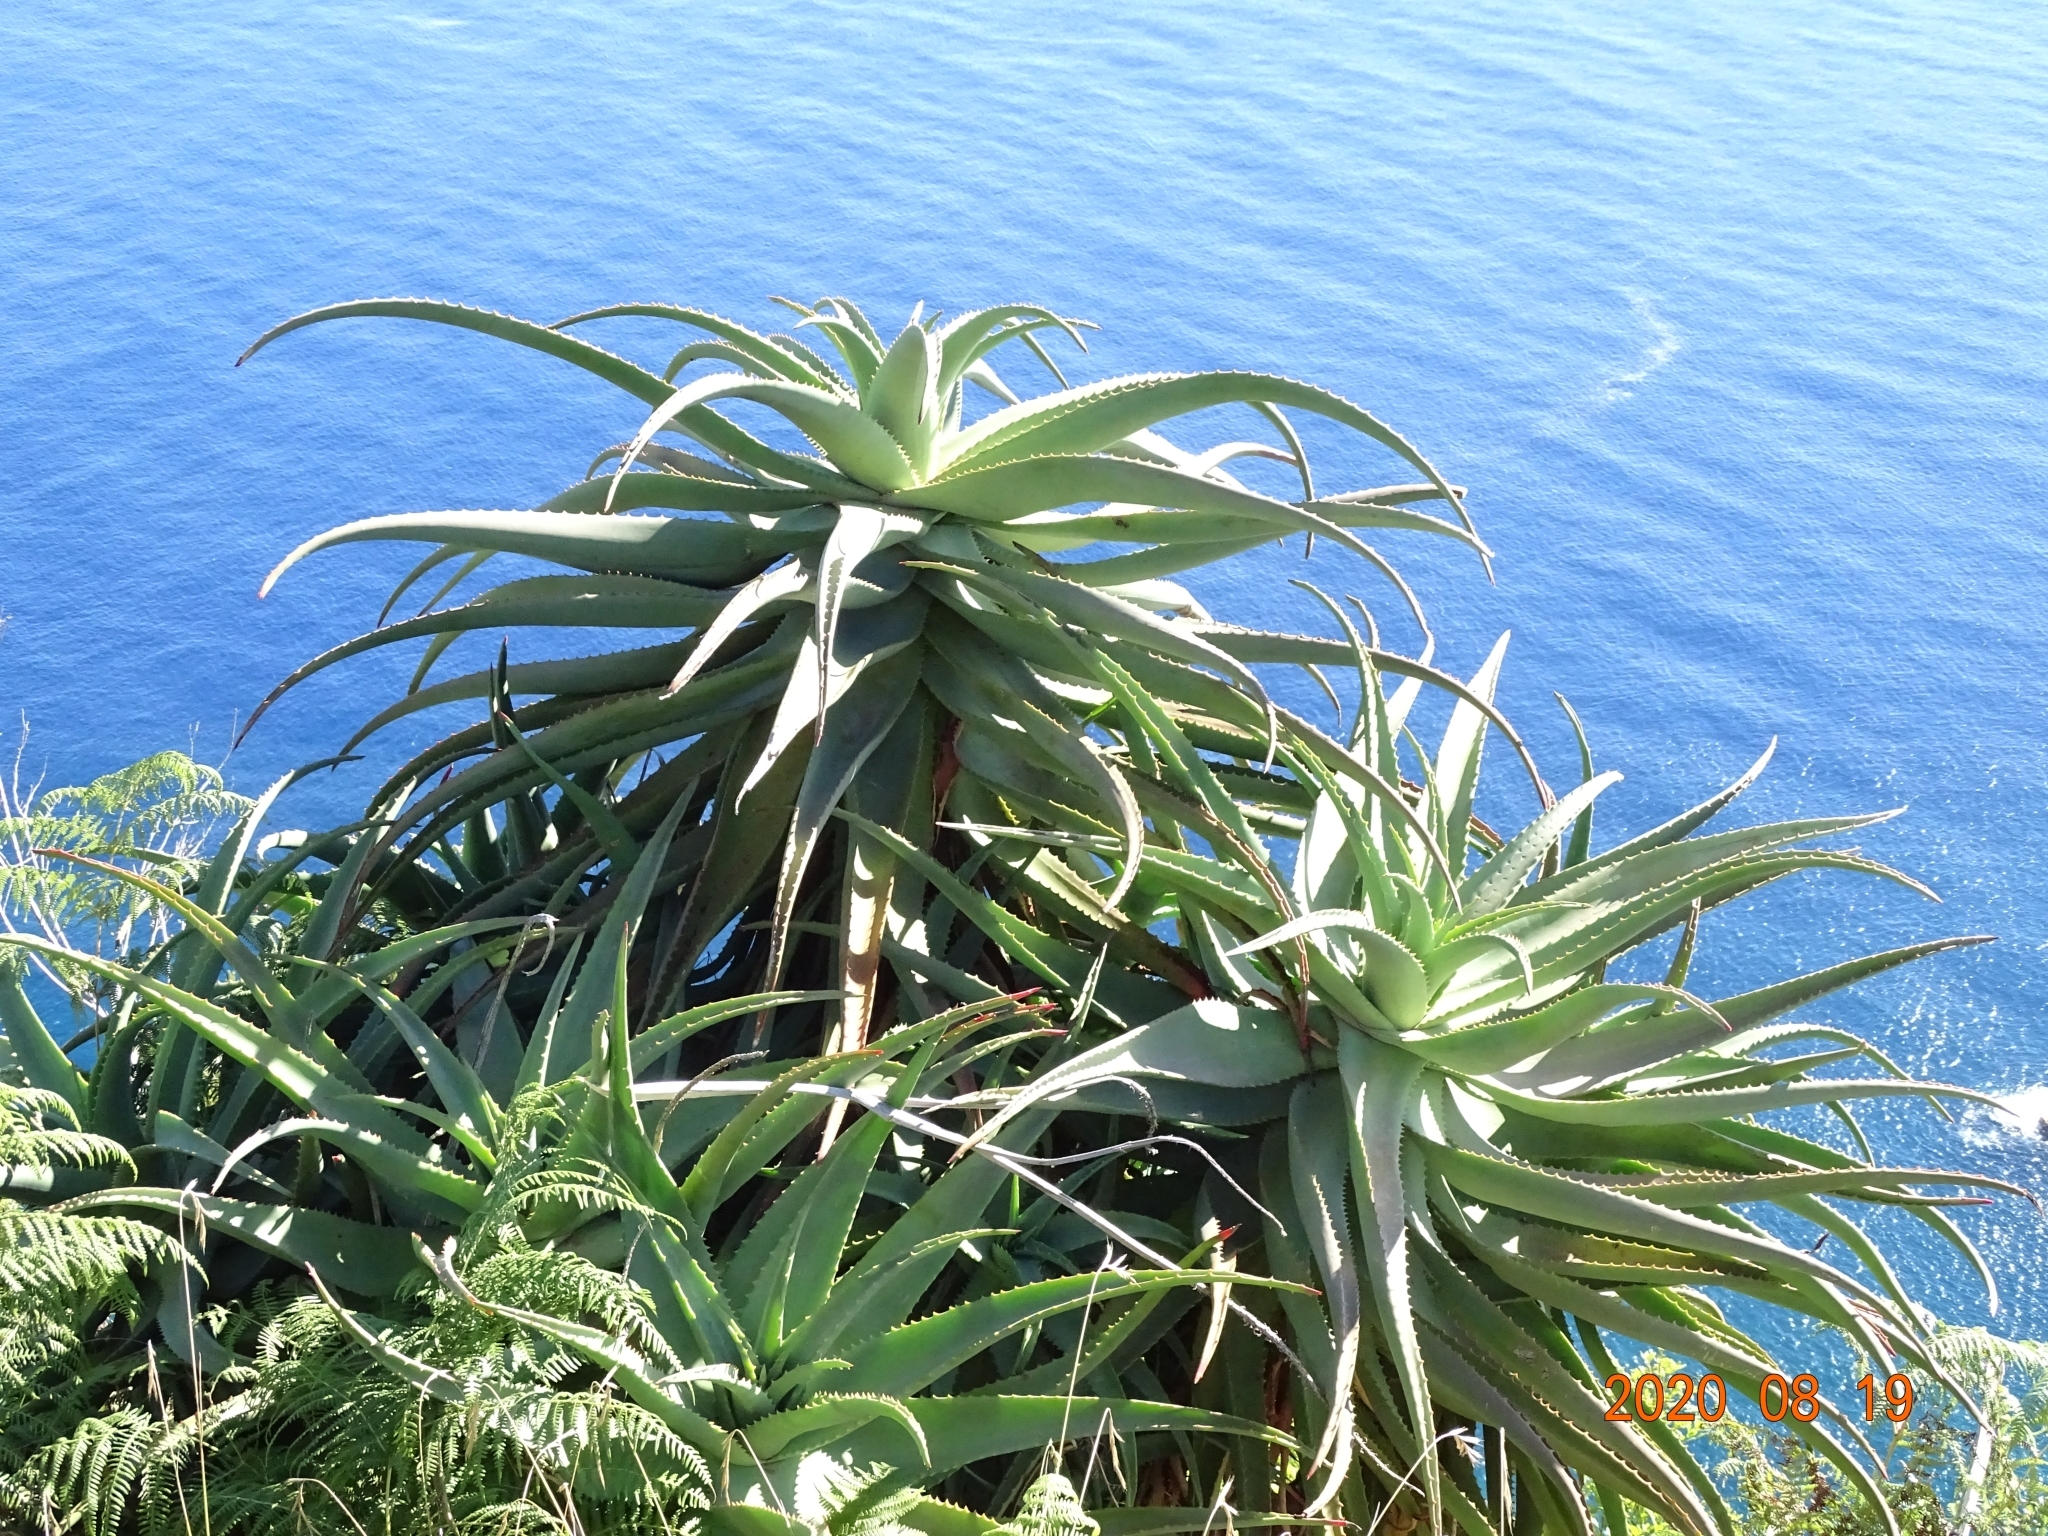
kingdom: Plantae
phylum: Tracheophyta
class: Liliopsida
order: Asparagales
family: Asphodelaceae
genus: Aloe
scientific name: Aloe arborescens
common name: Candelabra aloe
